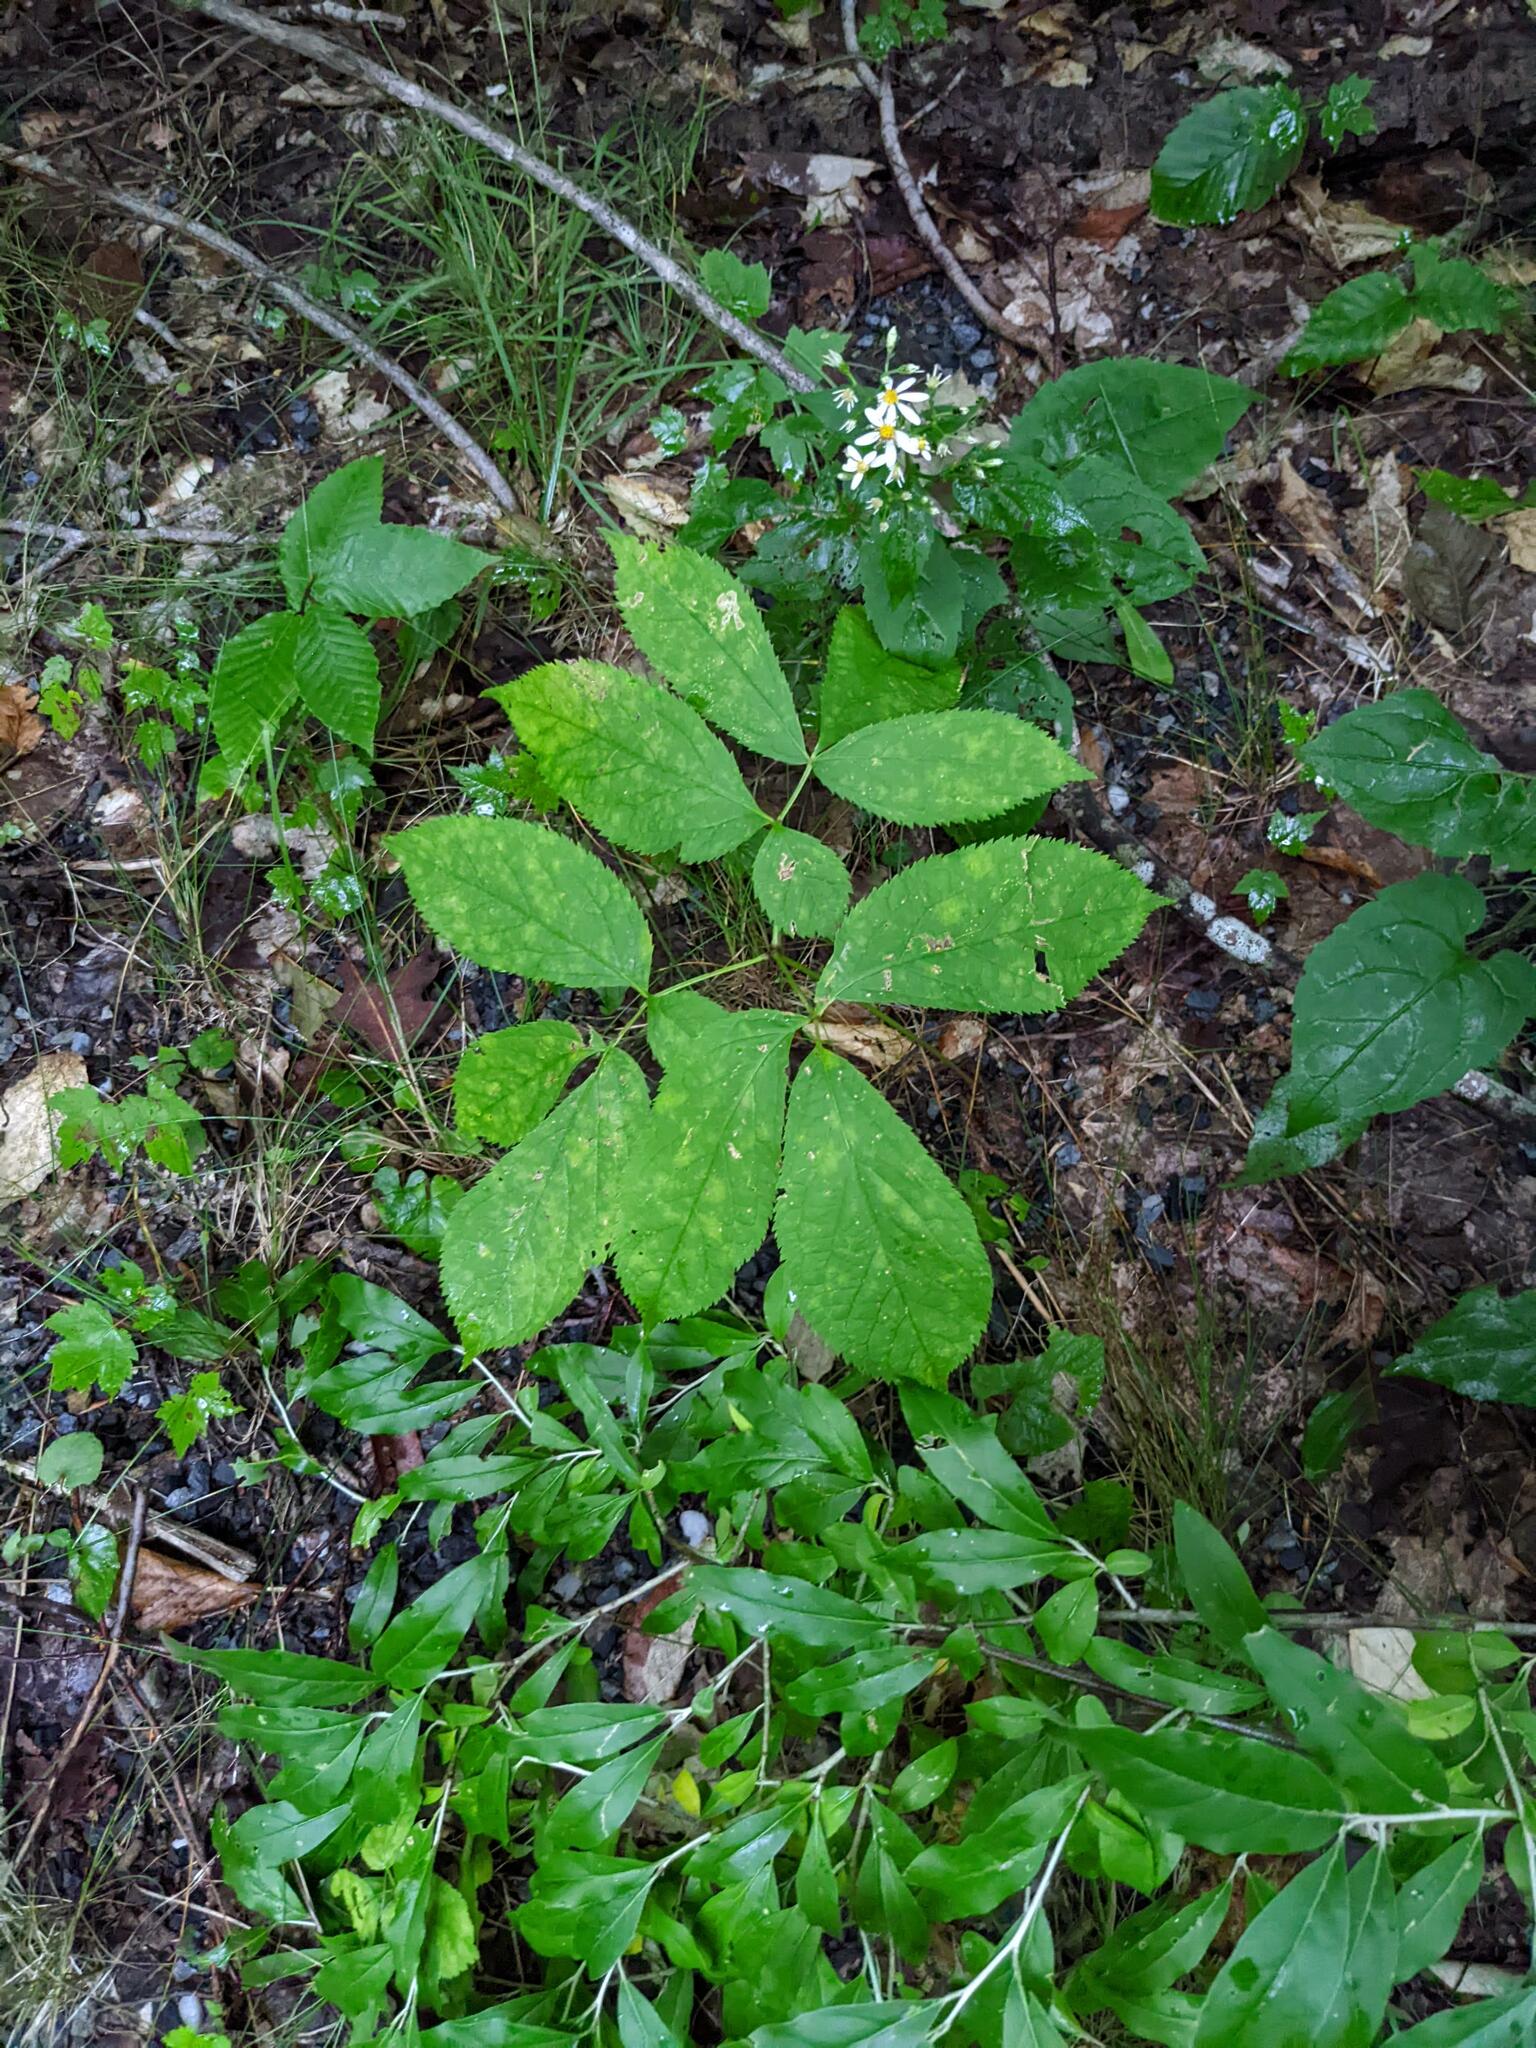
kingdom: Plantae
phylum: Tracheophyta
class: Magnoliopsida
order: Apiales
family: Araliaceae
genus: Aralia
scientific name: Aralia nudicaulis
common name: Wild sarsaparilla
